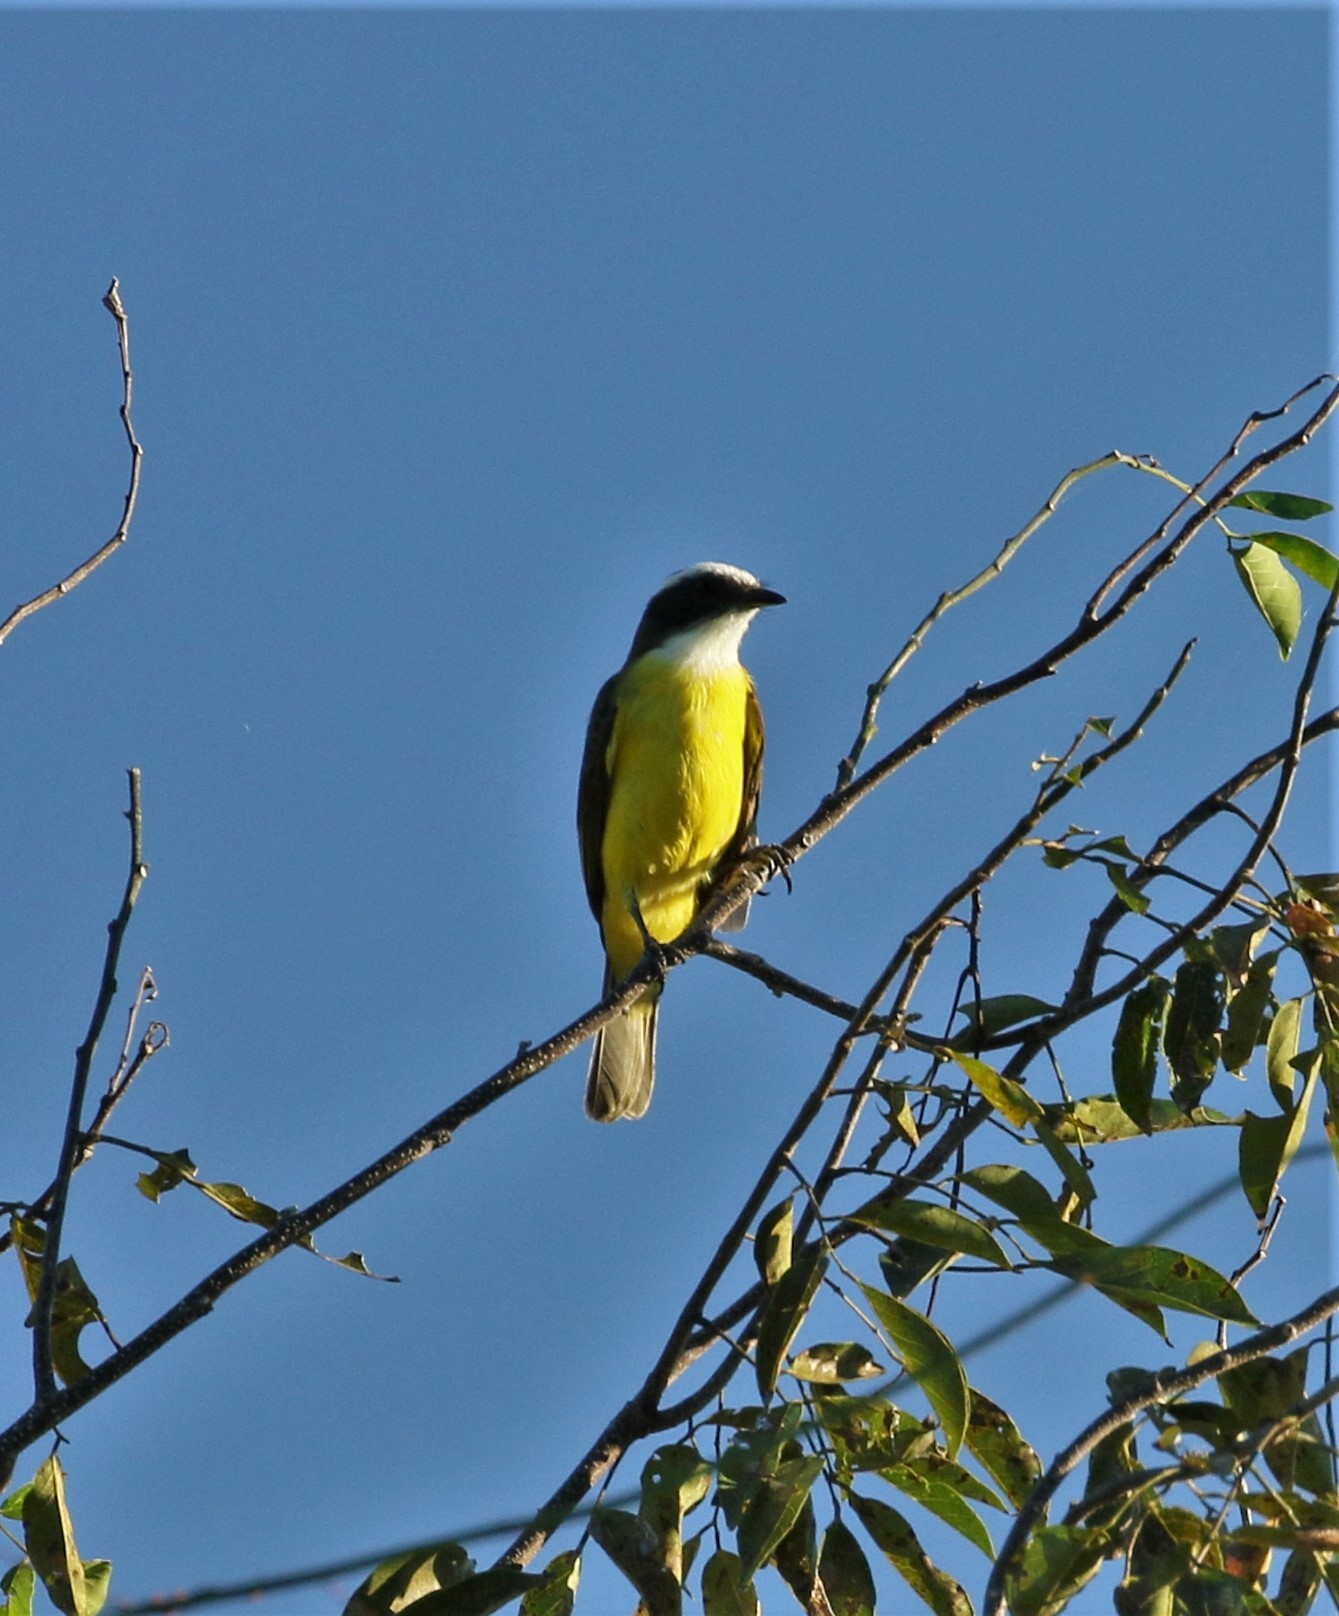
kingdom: Animalia
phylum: Chordata
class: Aves
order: Passeriformes
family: Tyrannidae
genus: Myiozetetes
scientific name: Myiozetetes similis
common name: Social flycatcher
